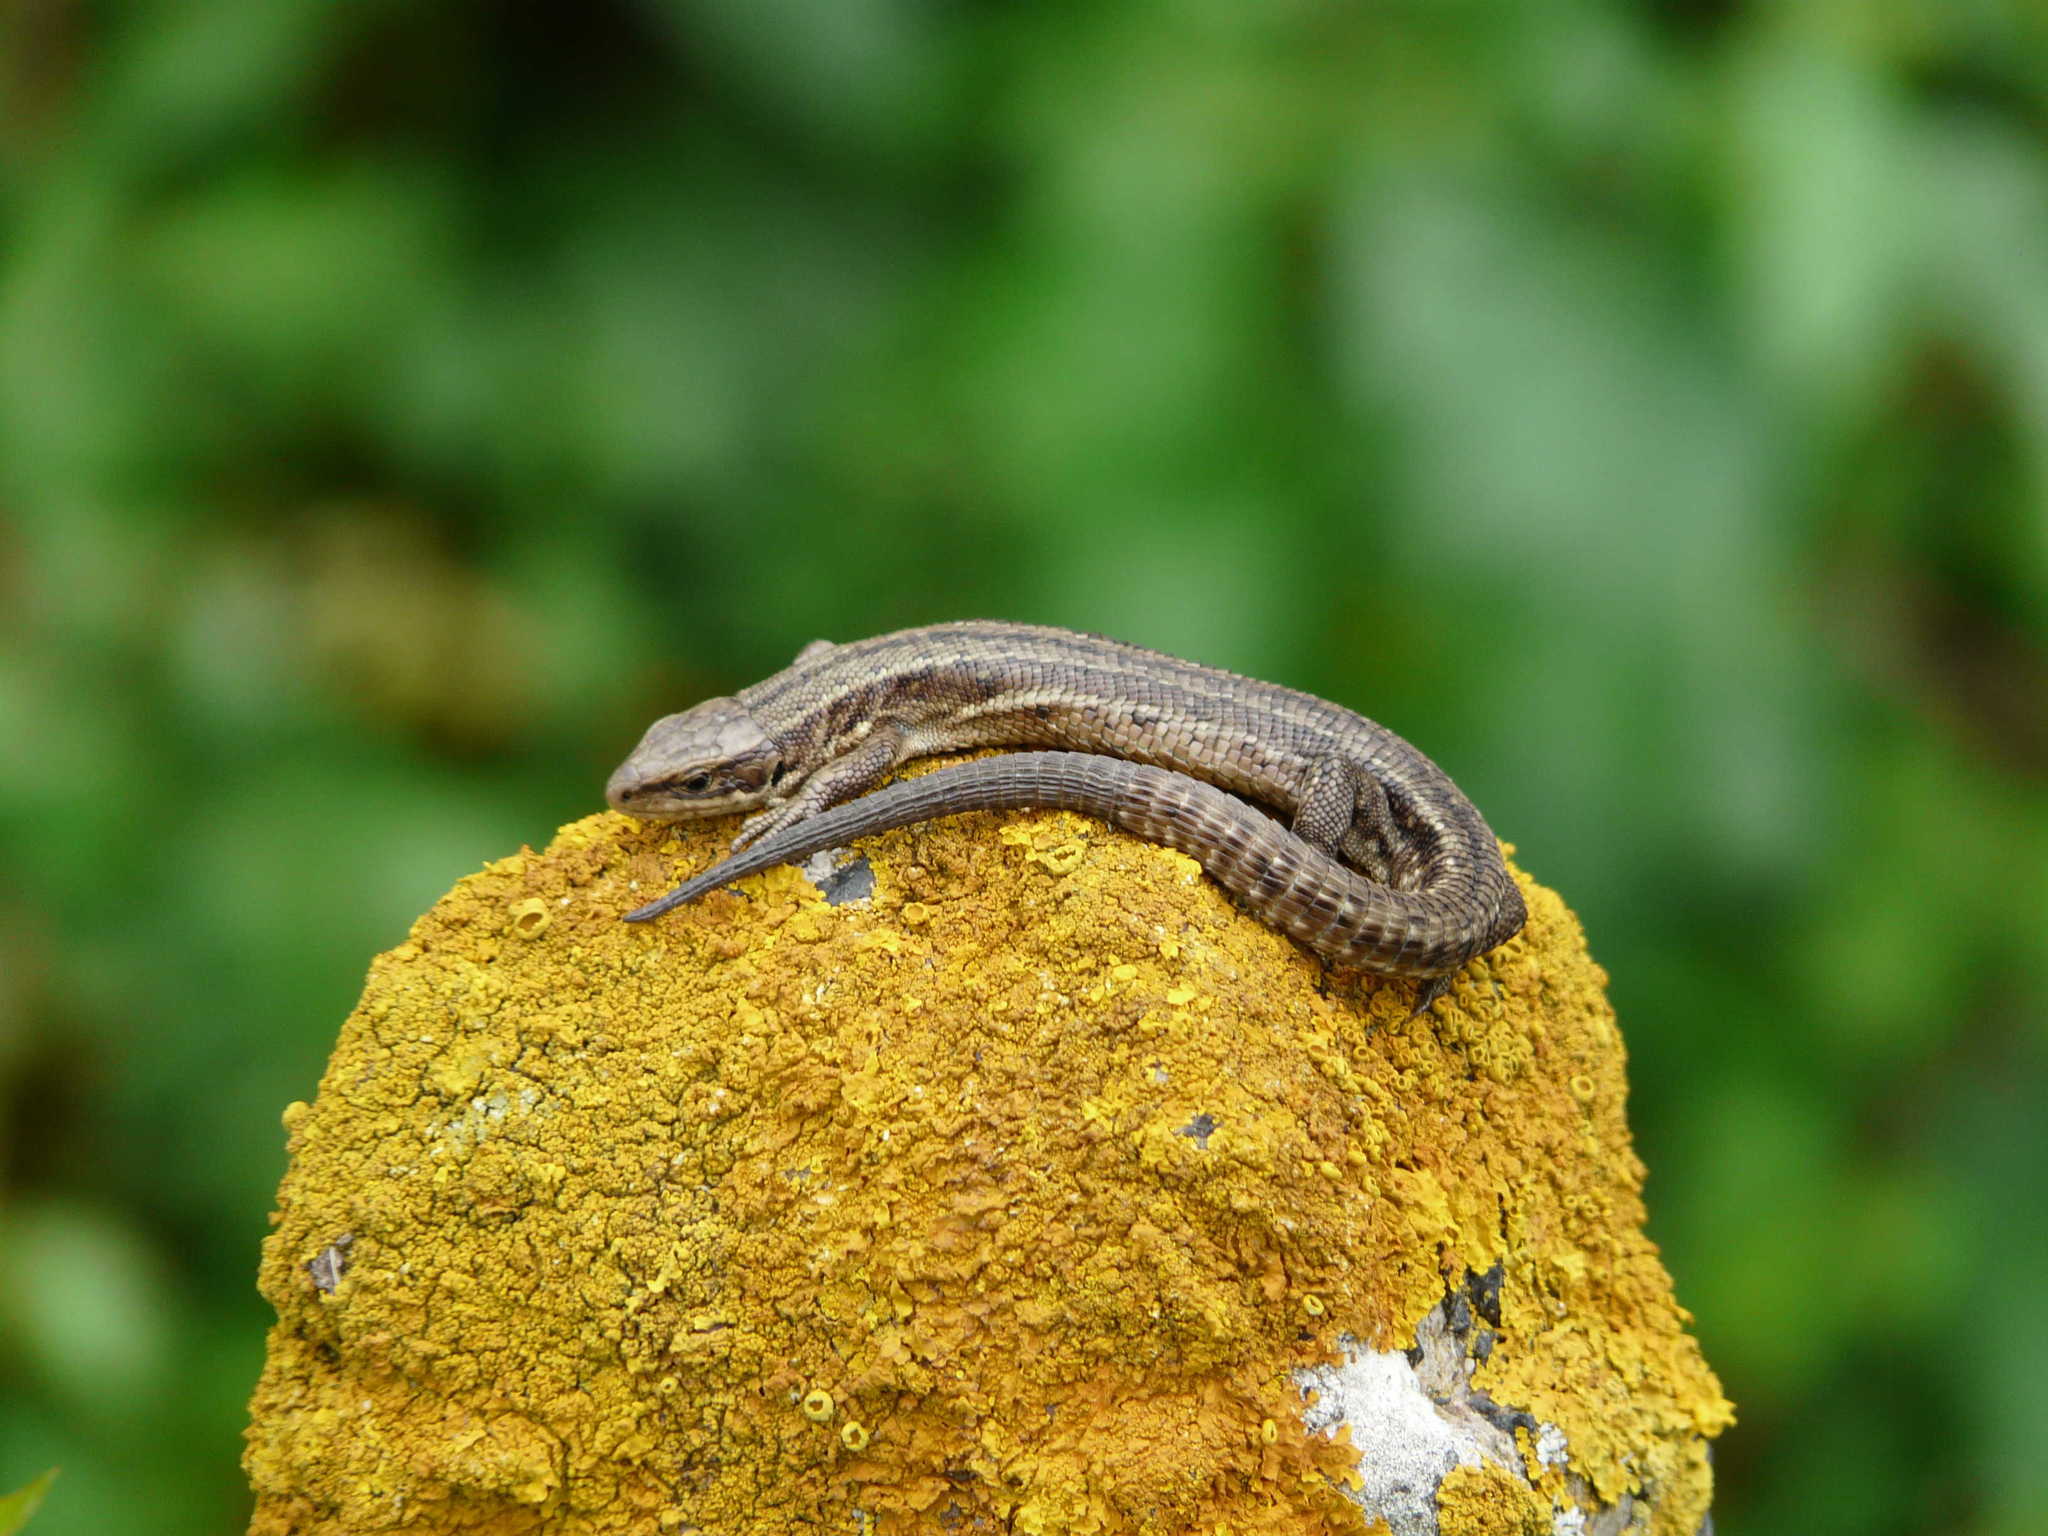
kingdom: Animalia
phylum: Chordata
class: Squamata
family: Lacertidae
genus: Zootoca
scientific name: Zootoca vivipara
